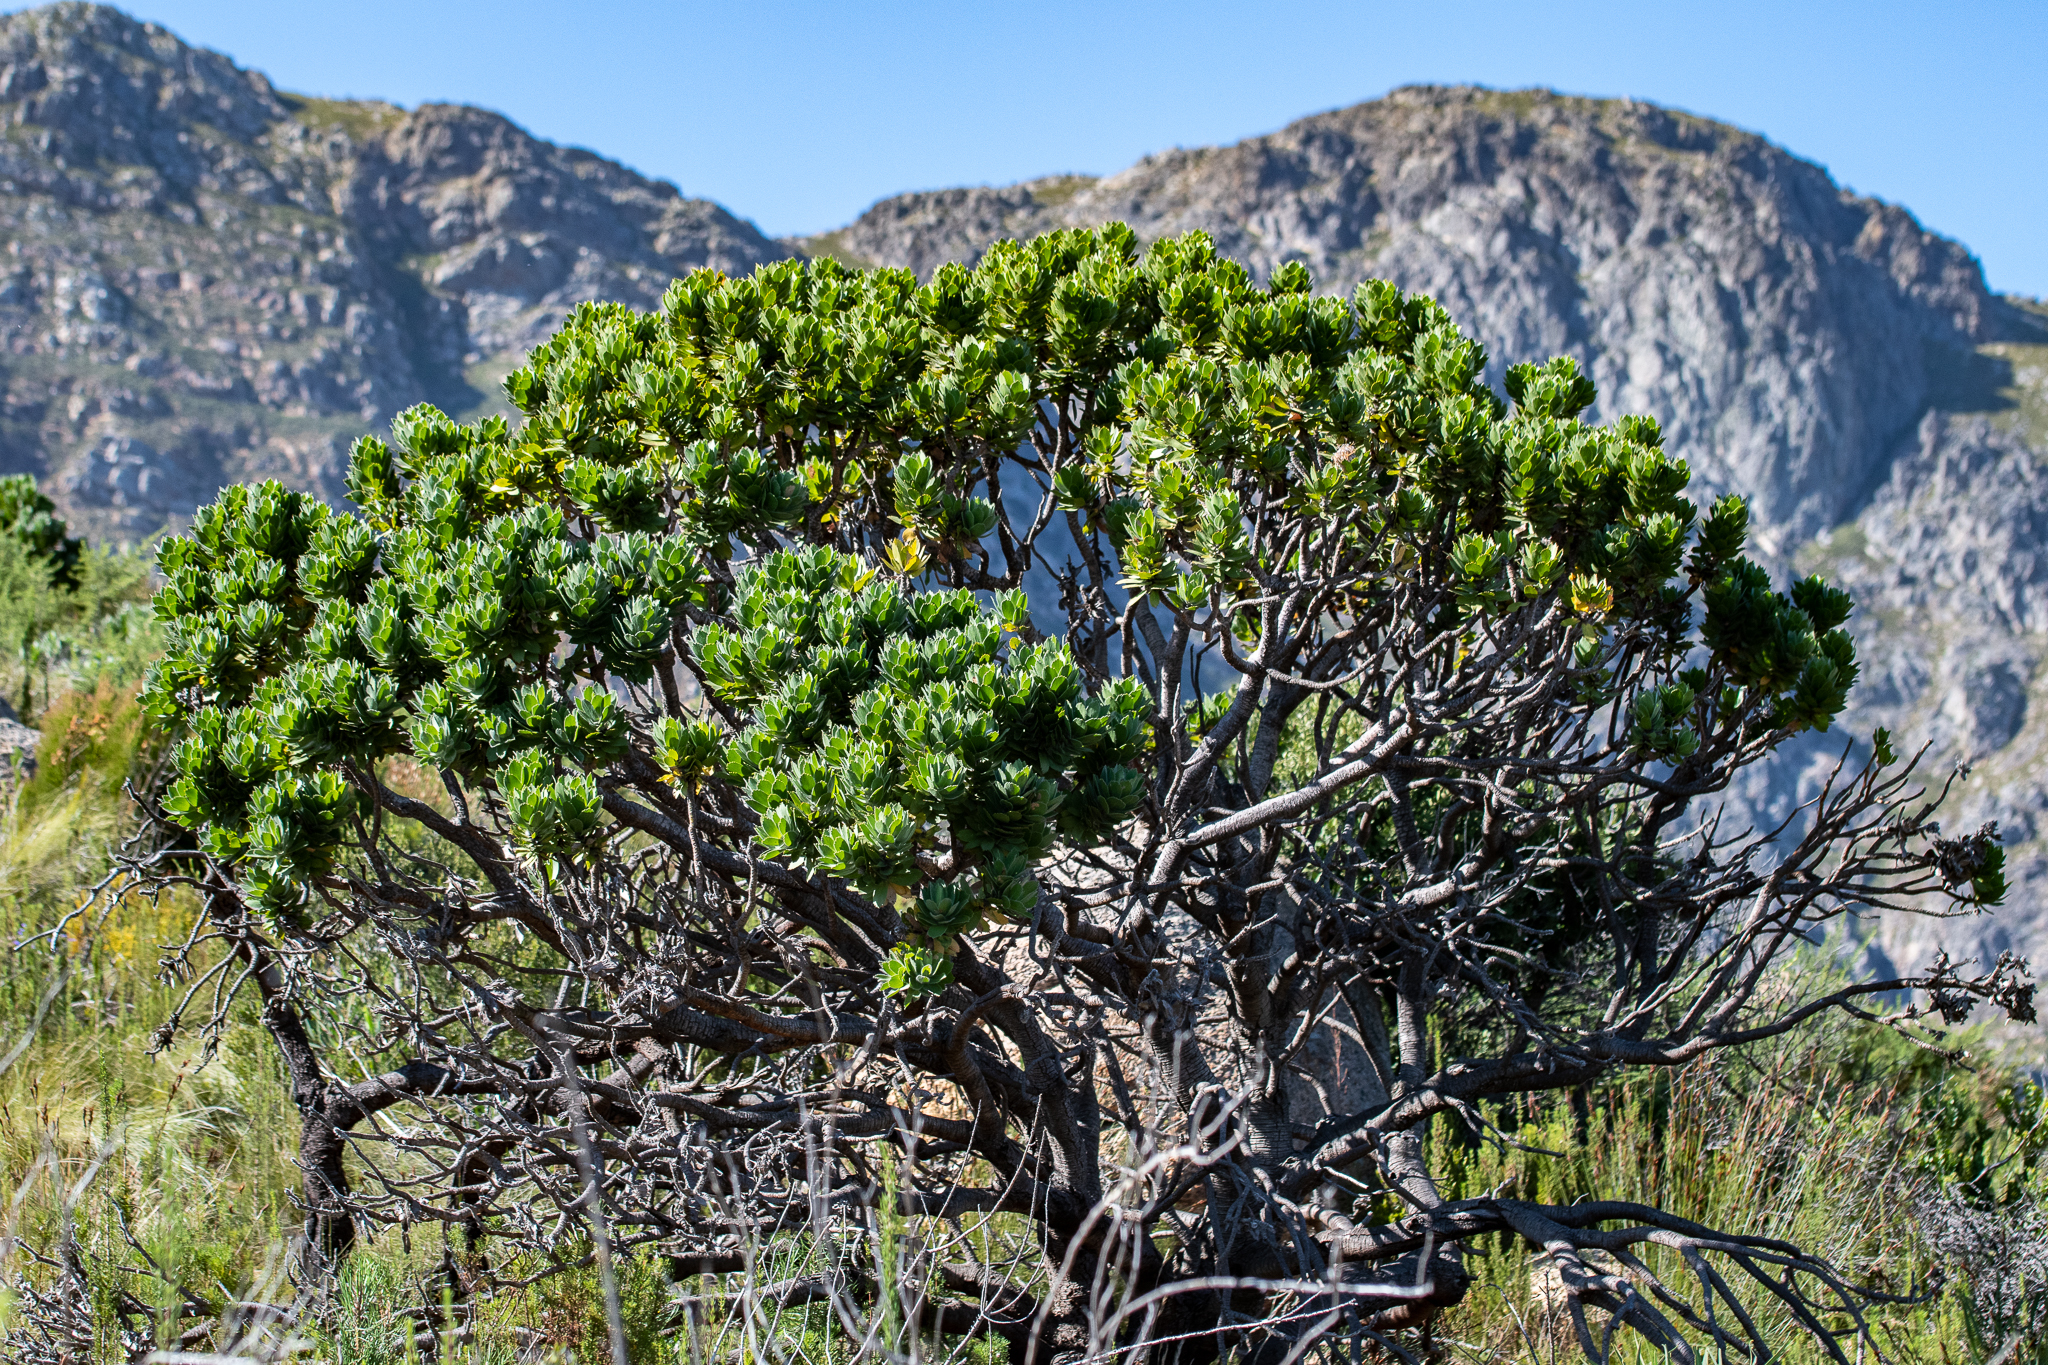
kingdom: Plantae
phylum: Tracheophyta
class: Magnoliopsida
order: Proteales
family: Proteaceae
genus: Leucospermum
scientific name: Leucospermum conocarpodendron
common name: Tree pincushion
